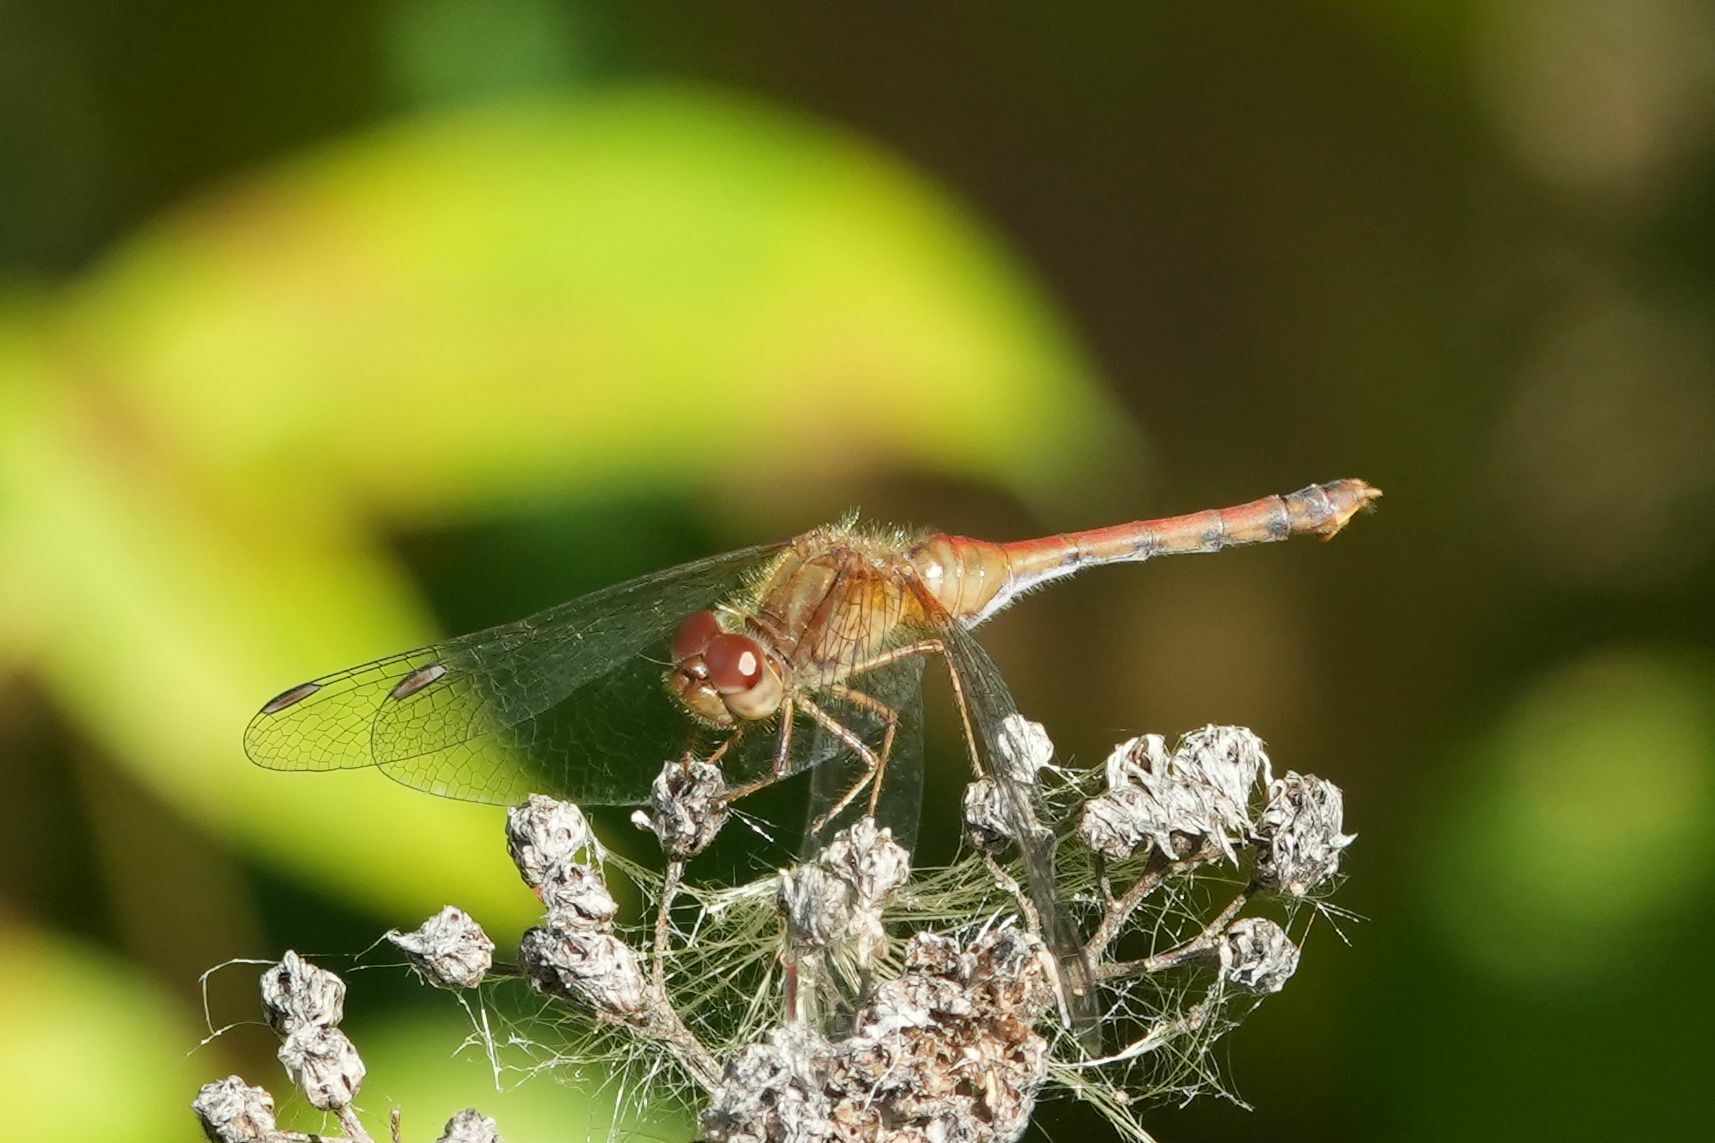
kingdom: Animalia
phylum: Arthropoda
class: Insecta
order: Odonata
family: Libellulidae
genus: Sympetrum
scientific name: Sympetrum vicinum
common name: Autumn meadowhawk
